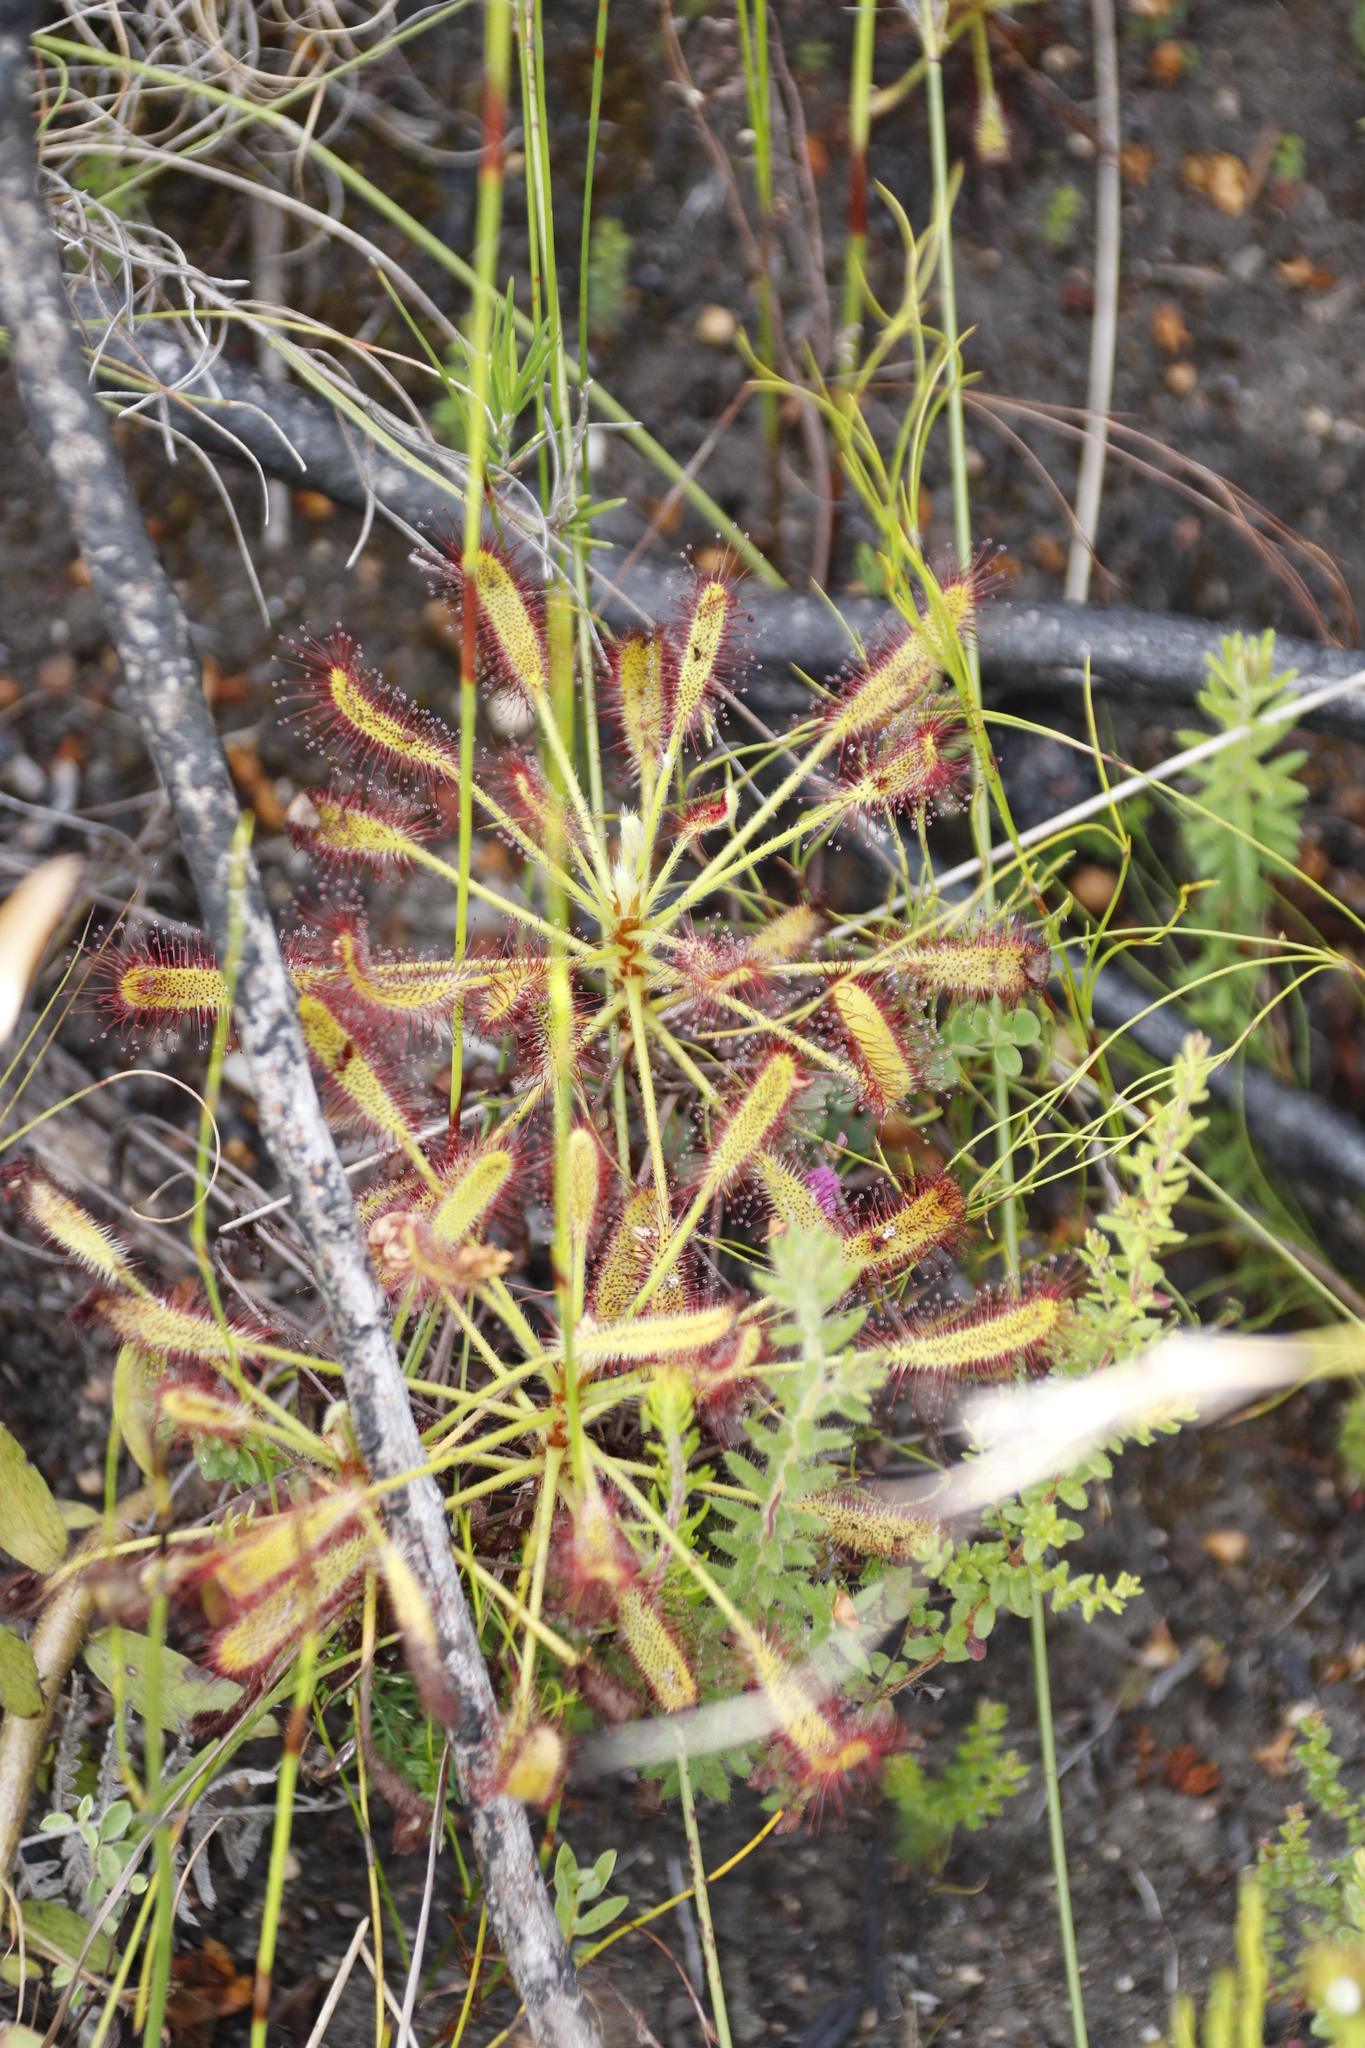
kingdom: Plantae
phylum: Tracheophyta
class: Magnoliopsida
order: Caryophyllales
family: Droseraceae
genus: Drosera
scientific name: Drosera ramentacea
